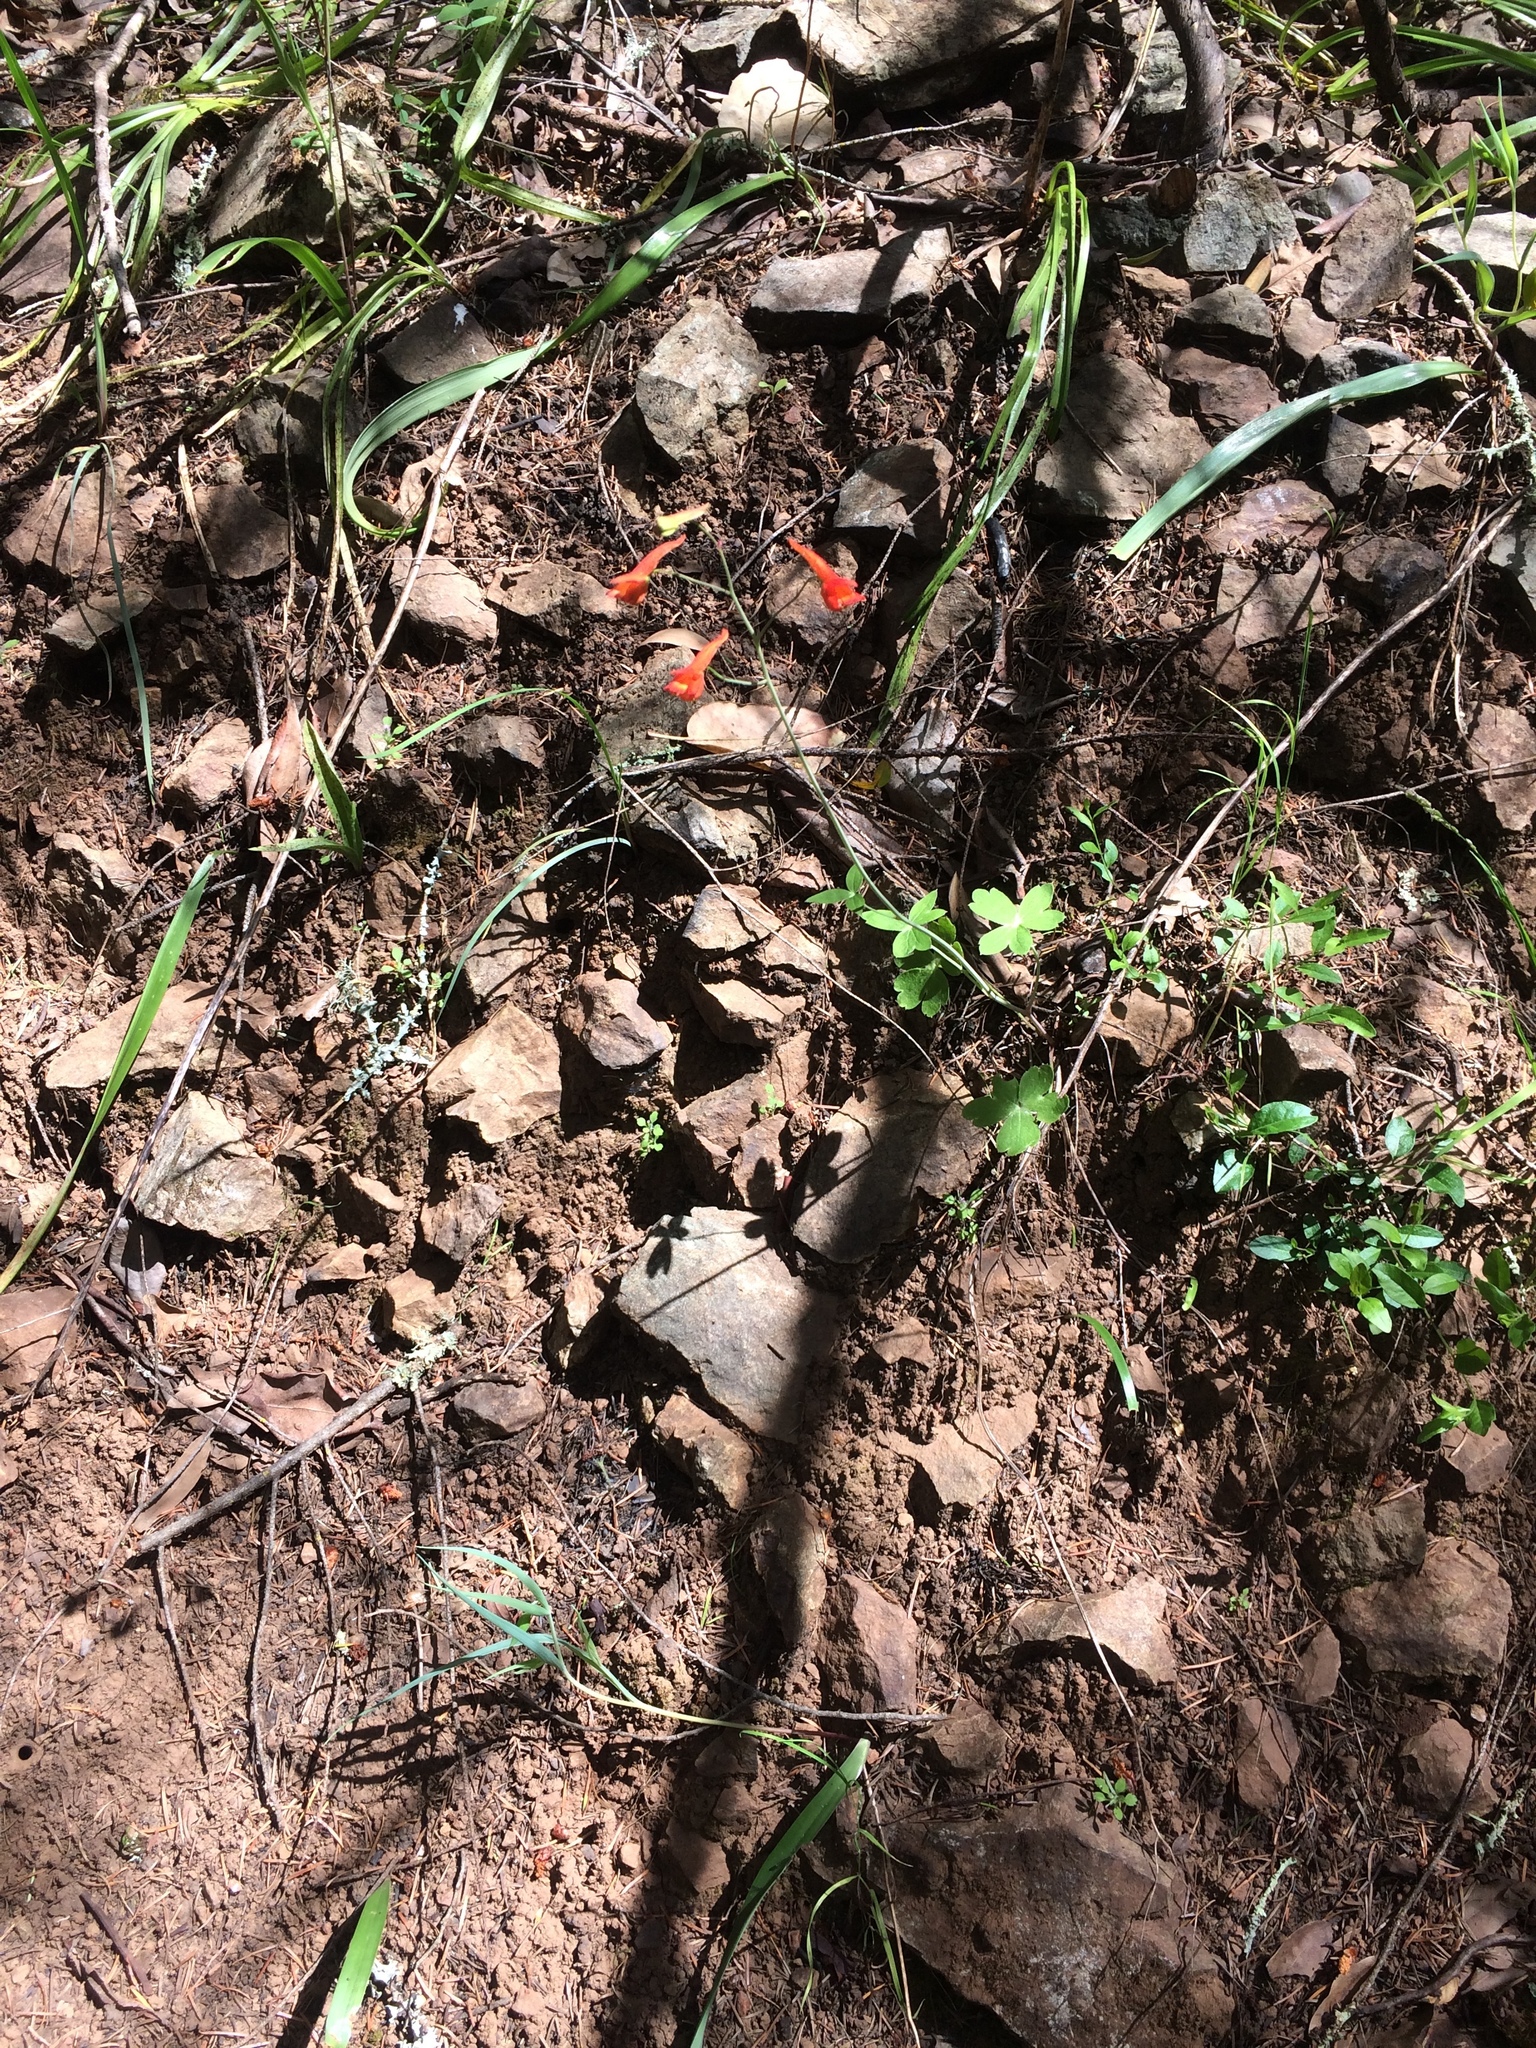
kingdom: Plantae
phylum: Tracheophyta
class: Magnoliopsida
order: Ranunculales
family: Ranunculaceae
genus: Delphinium
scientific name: Delphinium nudicaule
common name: Red larkspur
